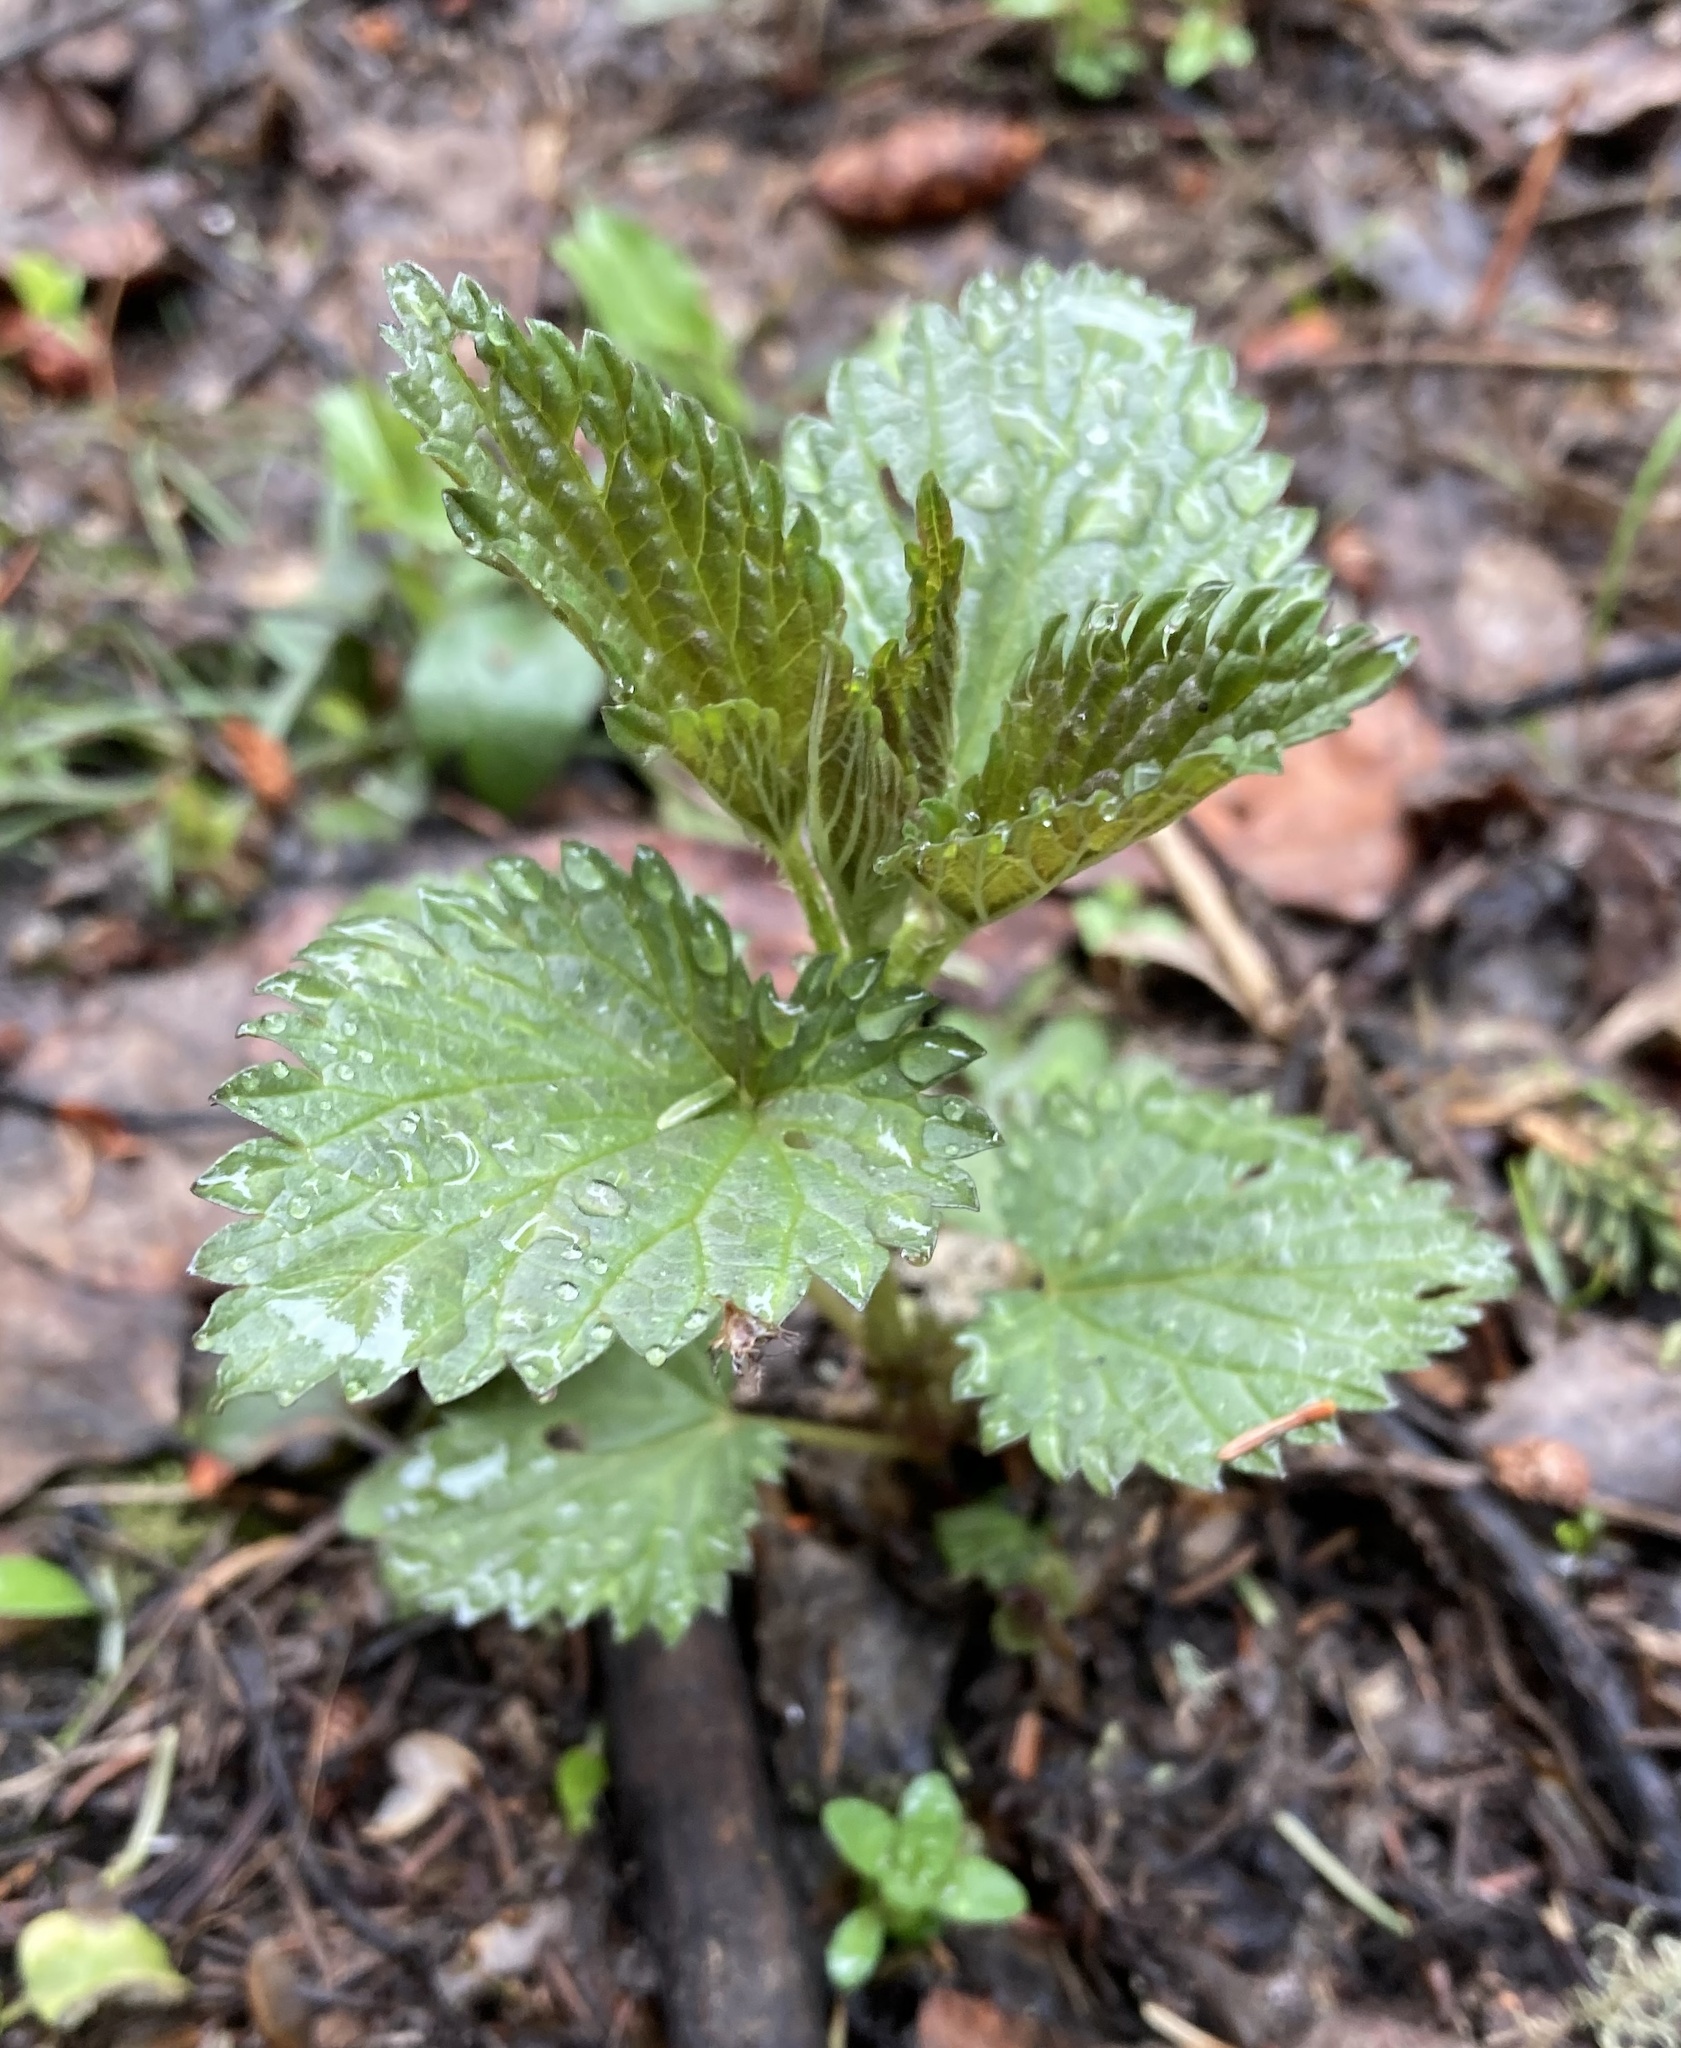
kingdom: Plantae
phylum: Tracheophyta
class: Magnoliopsida
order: Rosales
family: Urticaceae
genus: Urtica
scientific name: Urtica gracilis
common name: Slender stinging nettle
